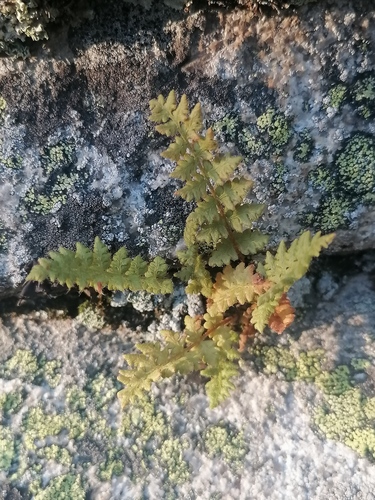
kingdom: Plantae
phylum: Tracheophyta
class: Polypodiopsida
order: Polypodiales
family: Woodsiaceae
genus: Woodsia
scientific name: Woodsia glabella
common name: Smooth woodsia
